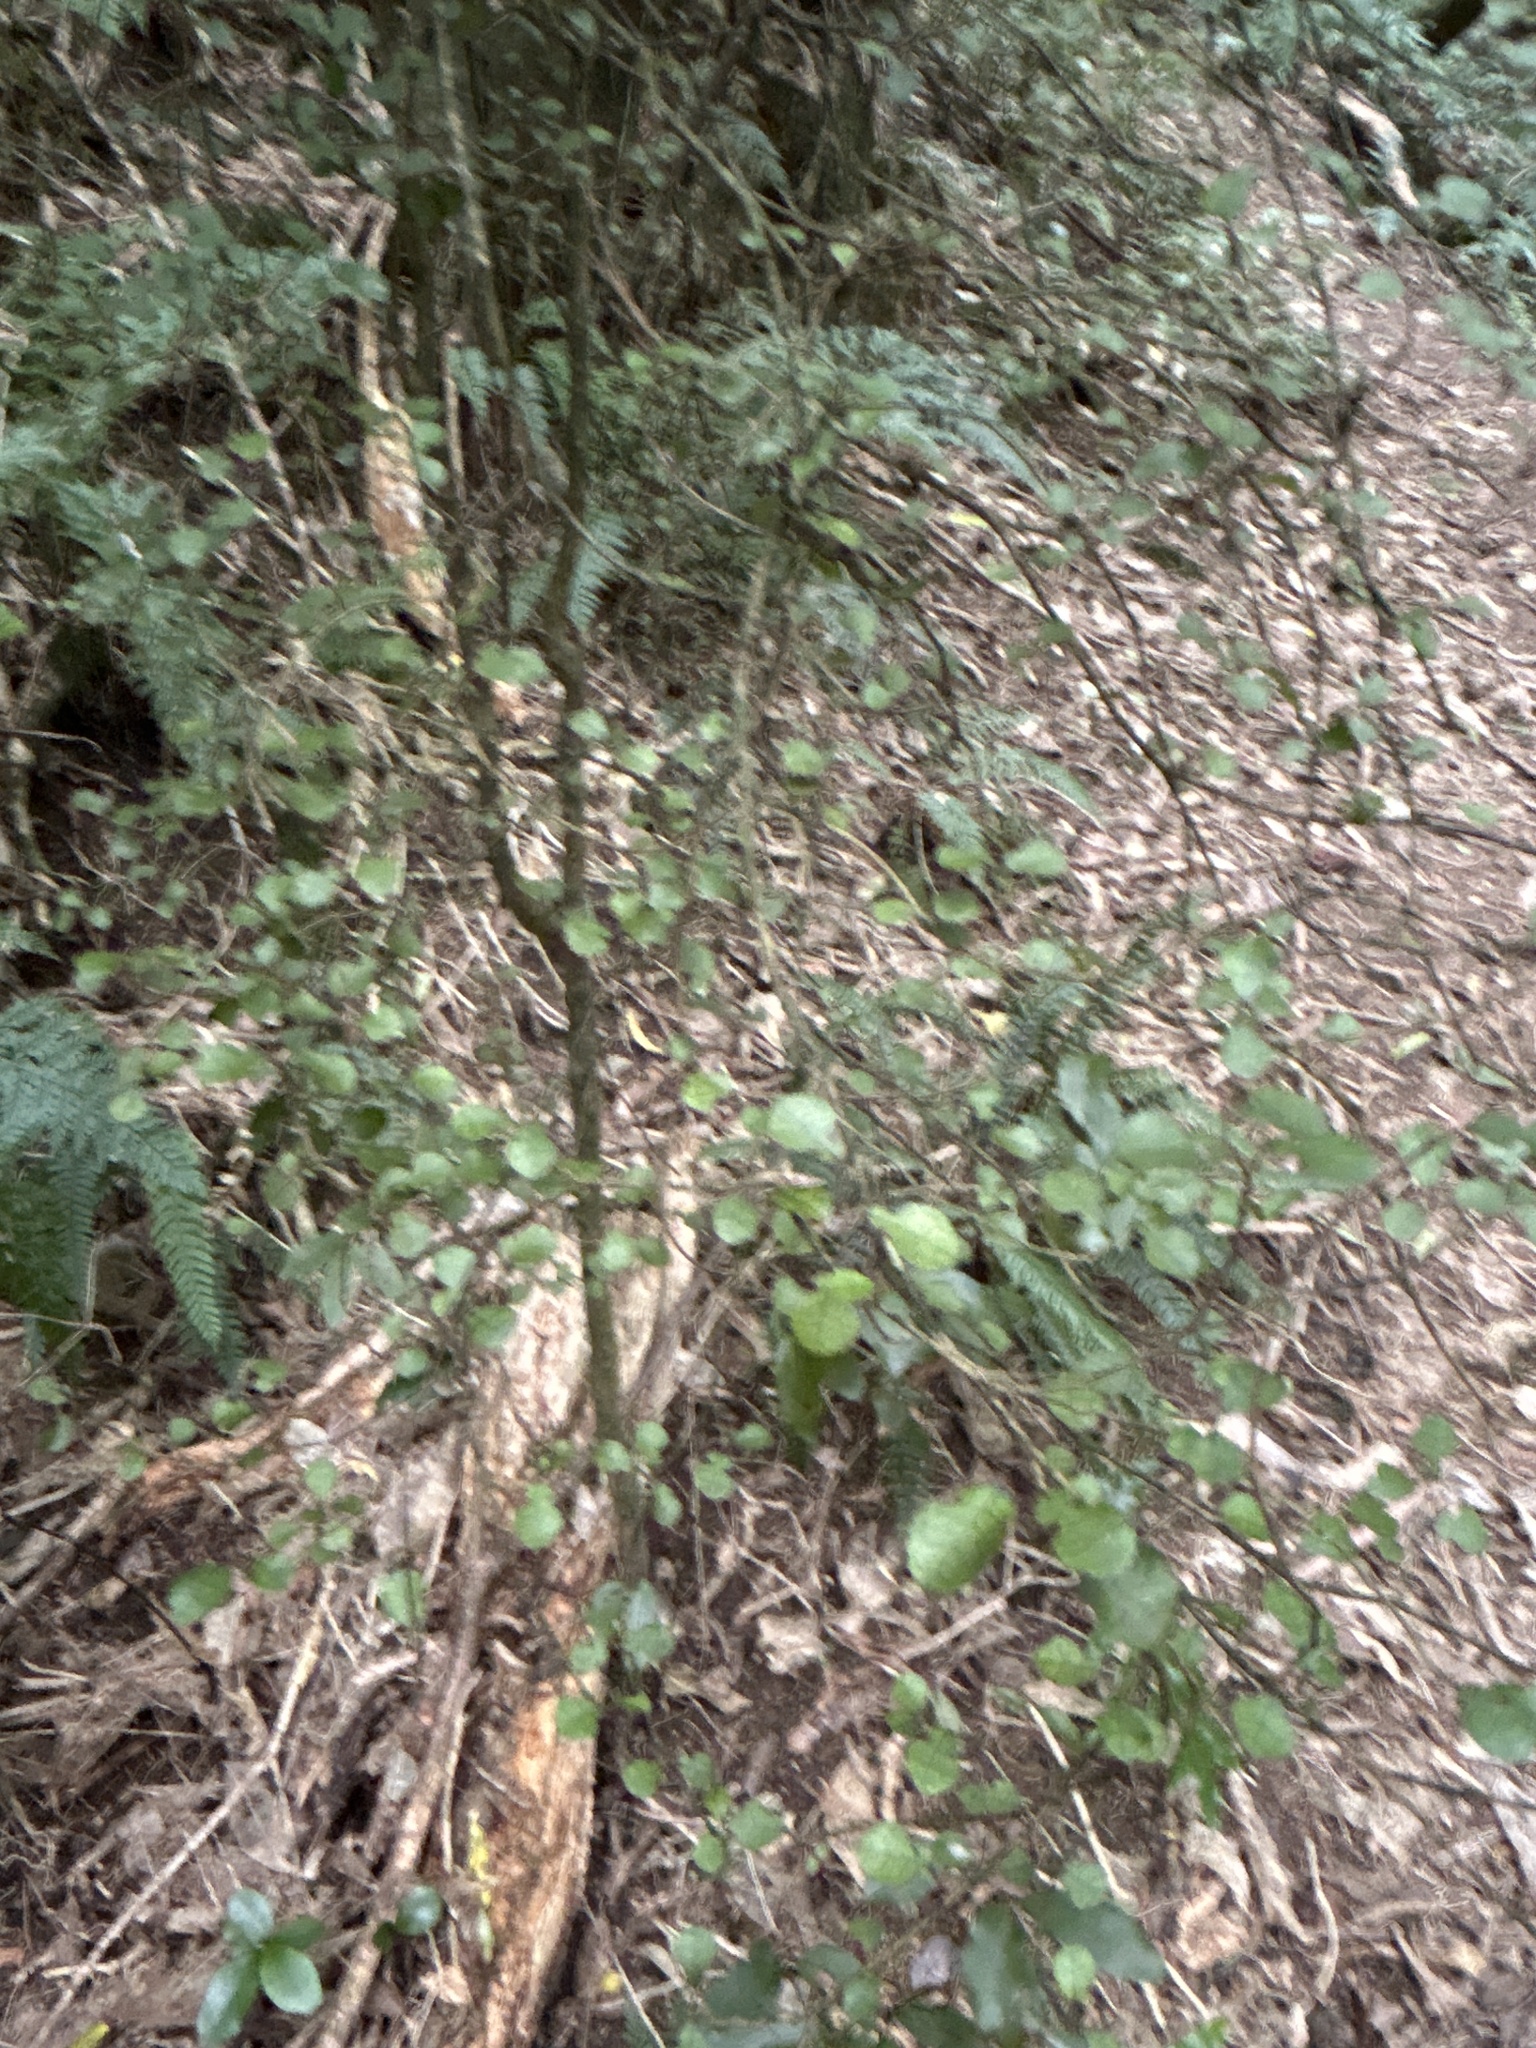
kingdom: Plantae
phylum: Tracheophyta
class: Magnoliopsida
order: Rosales
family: Moraceae
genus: Paratrophis
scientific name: Paratrophis microphylla
